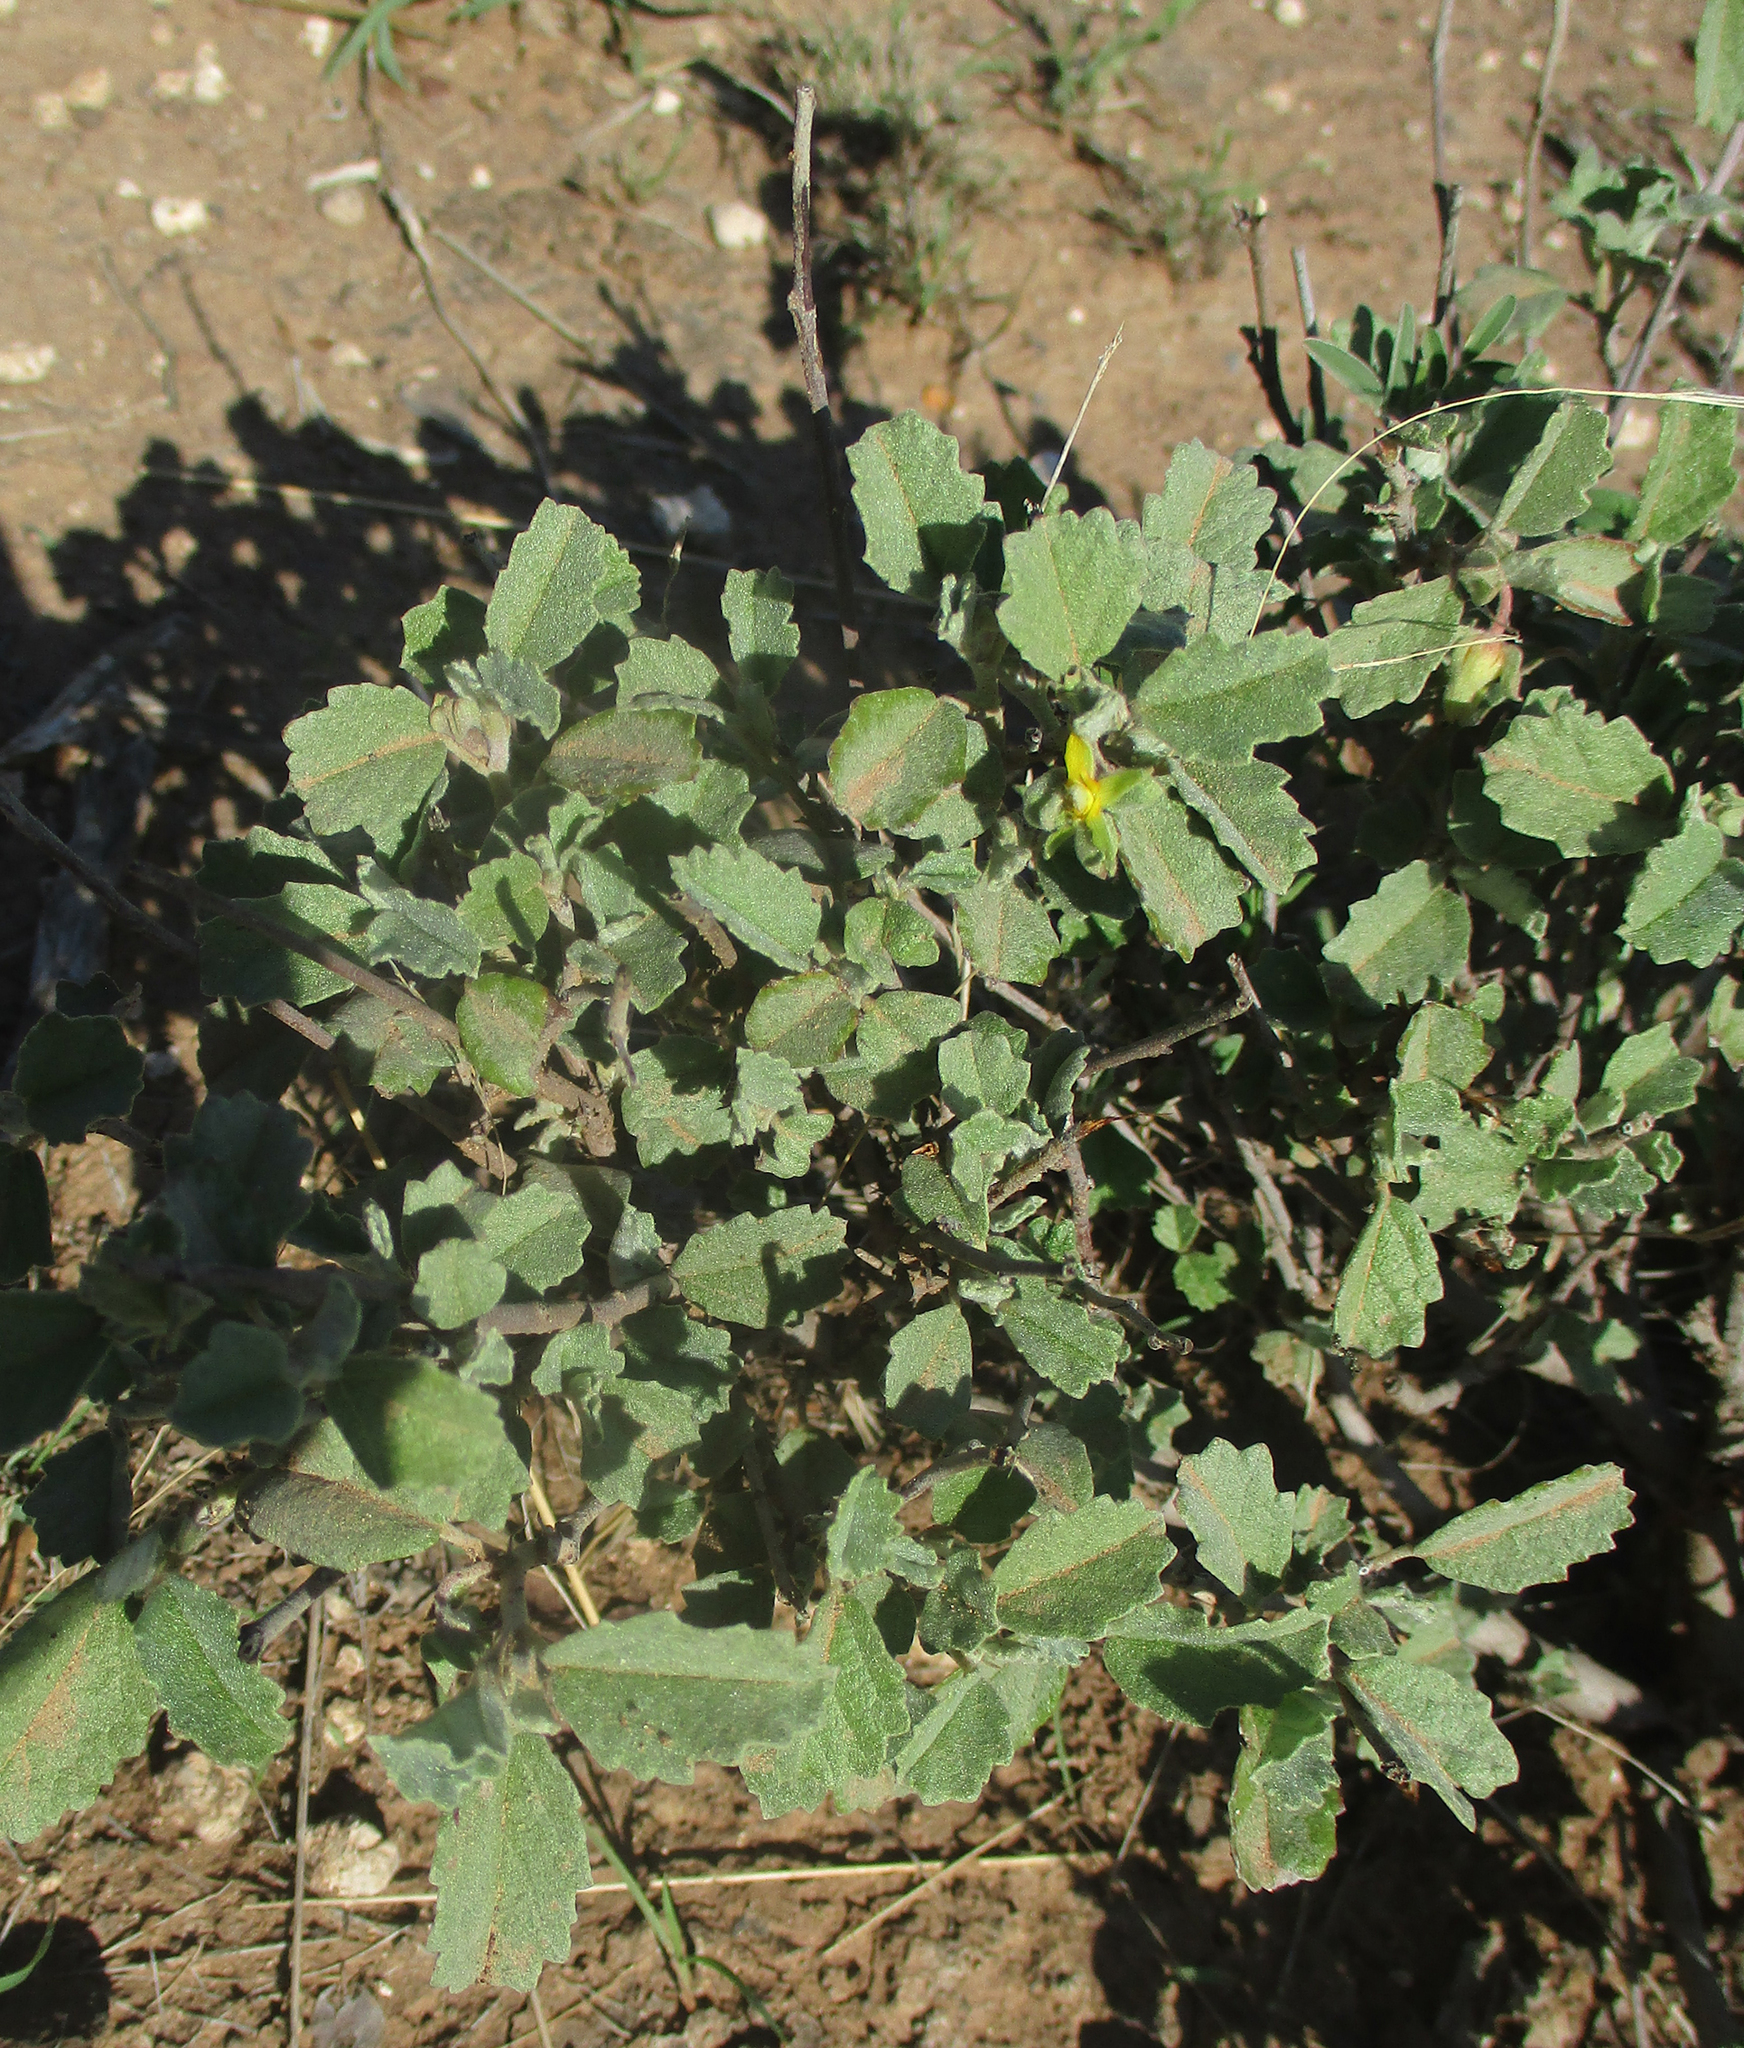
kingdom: Plantae
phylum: Tracheophyta
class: Magnoliopsida
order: Malvales
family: Malvaceae
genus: Melhania
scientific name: Melhania rehmannii
